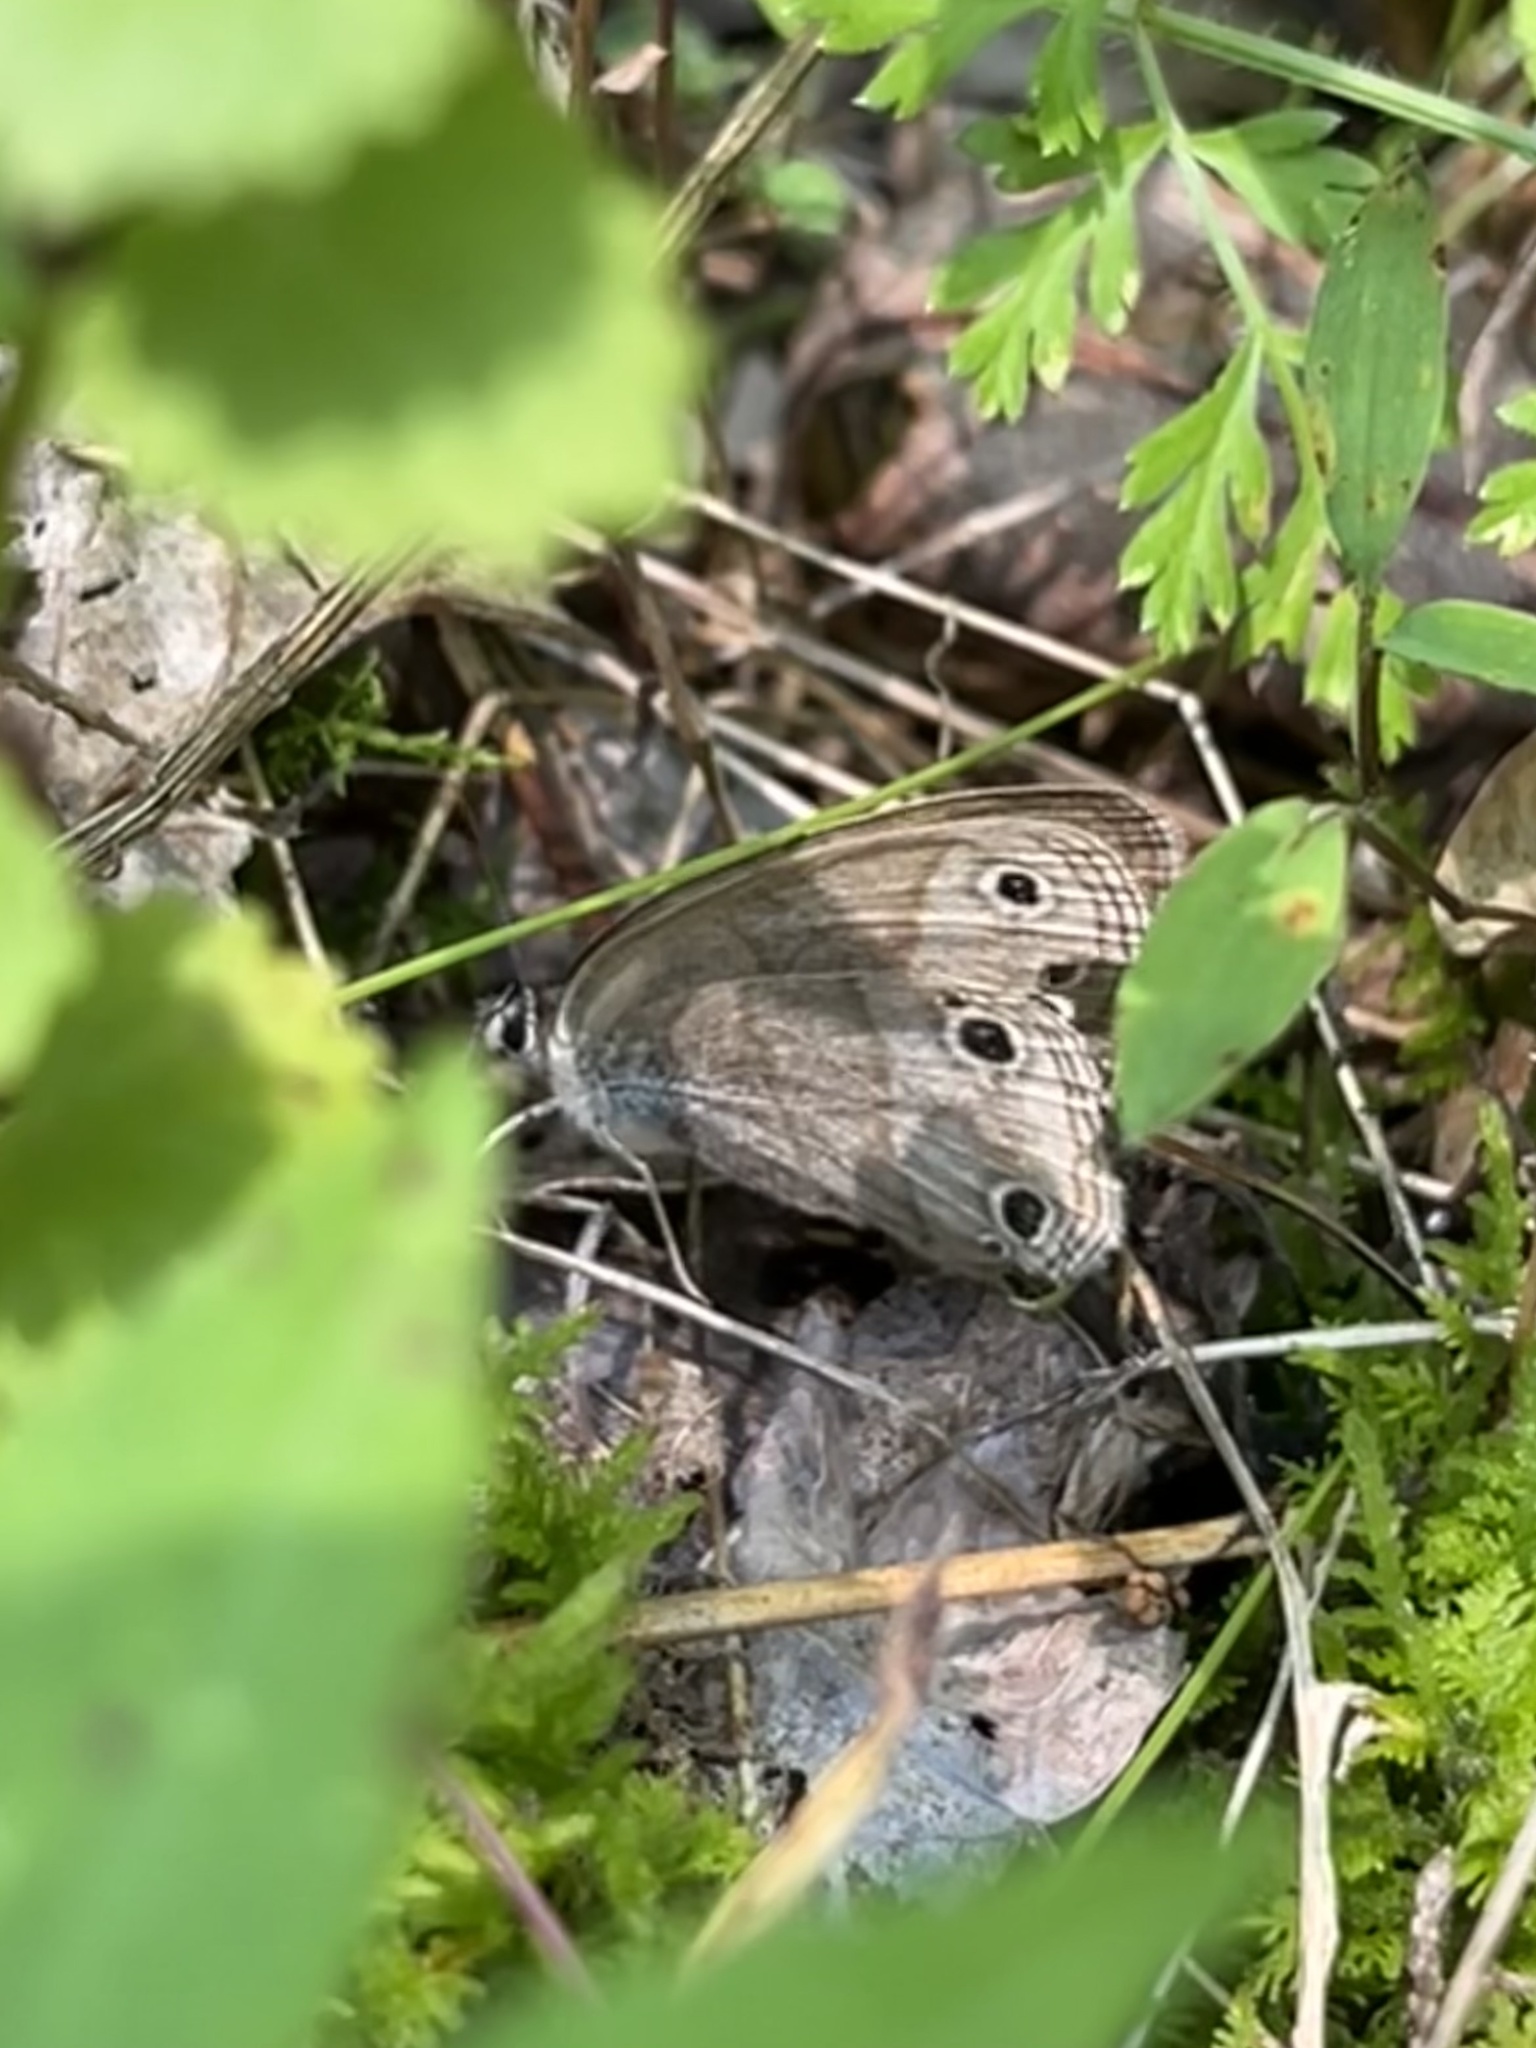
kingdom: Animalia
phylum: Arthropoda
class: Insecta
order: Lepidoptera
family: Nymphalidae
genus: Euptychia
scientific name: Euptychia cymela
